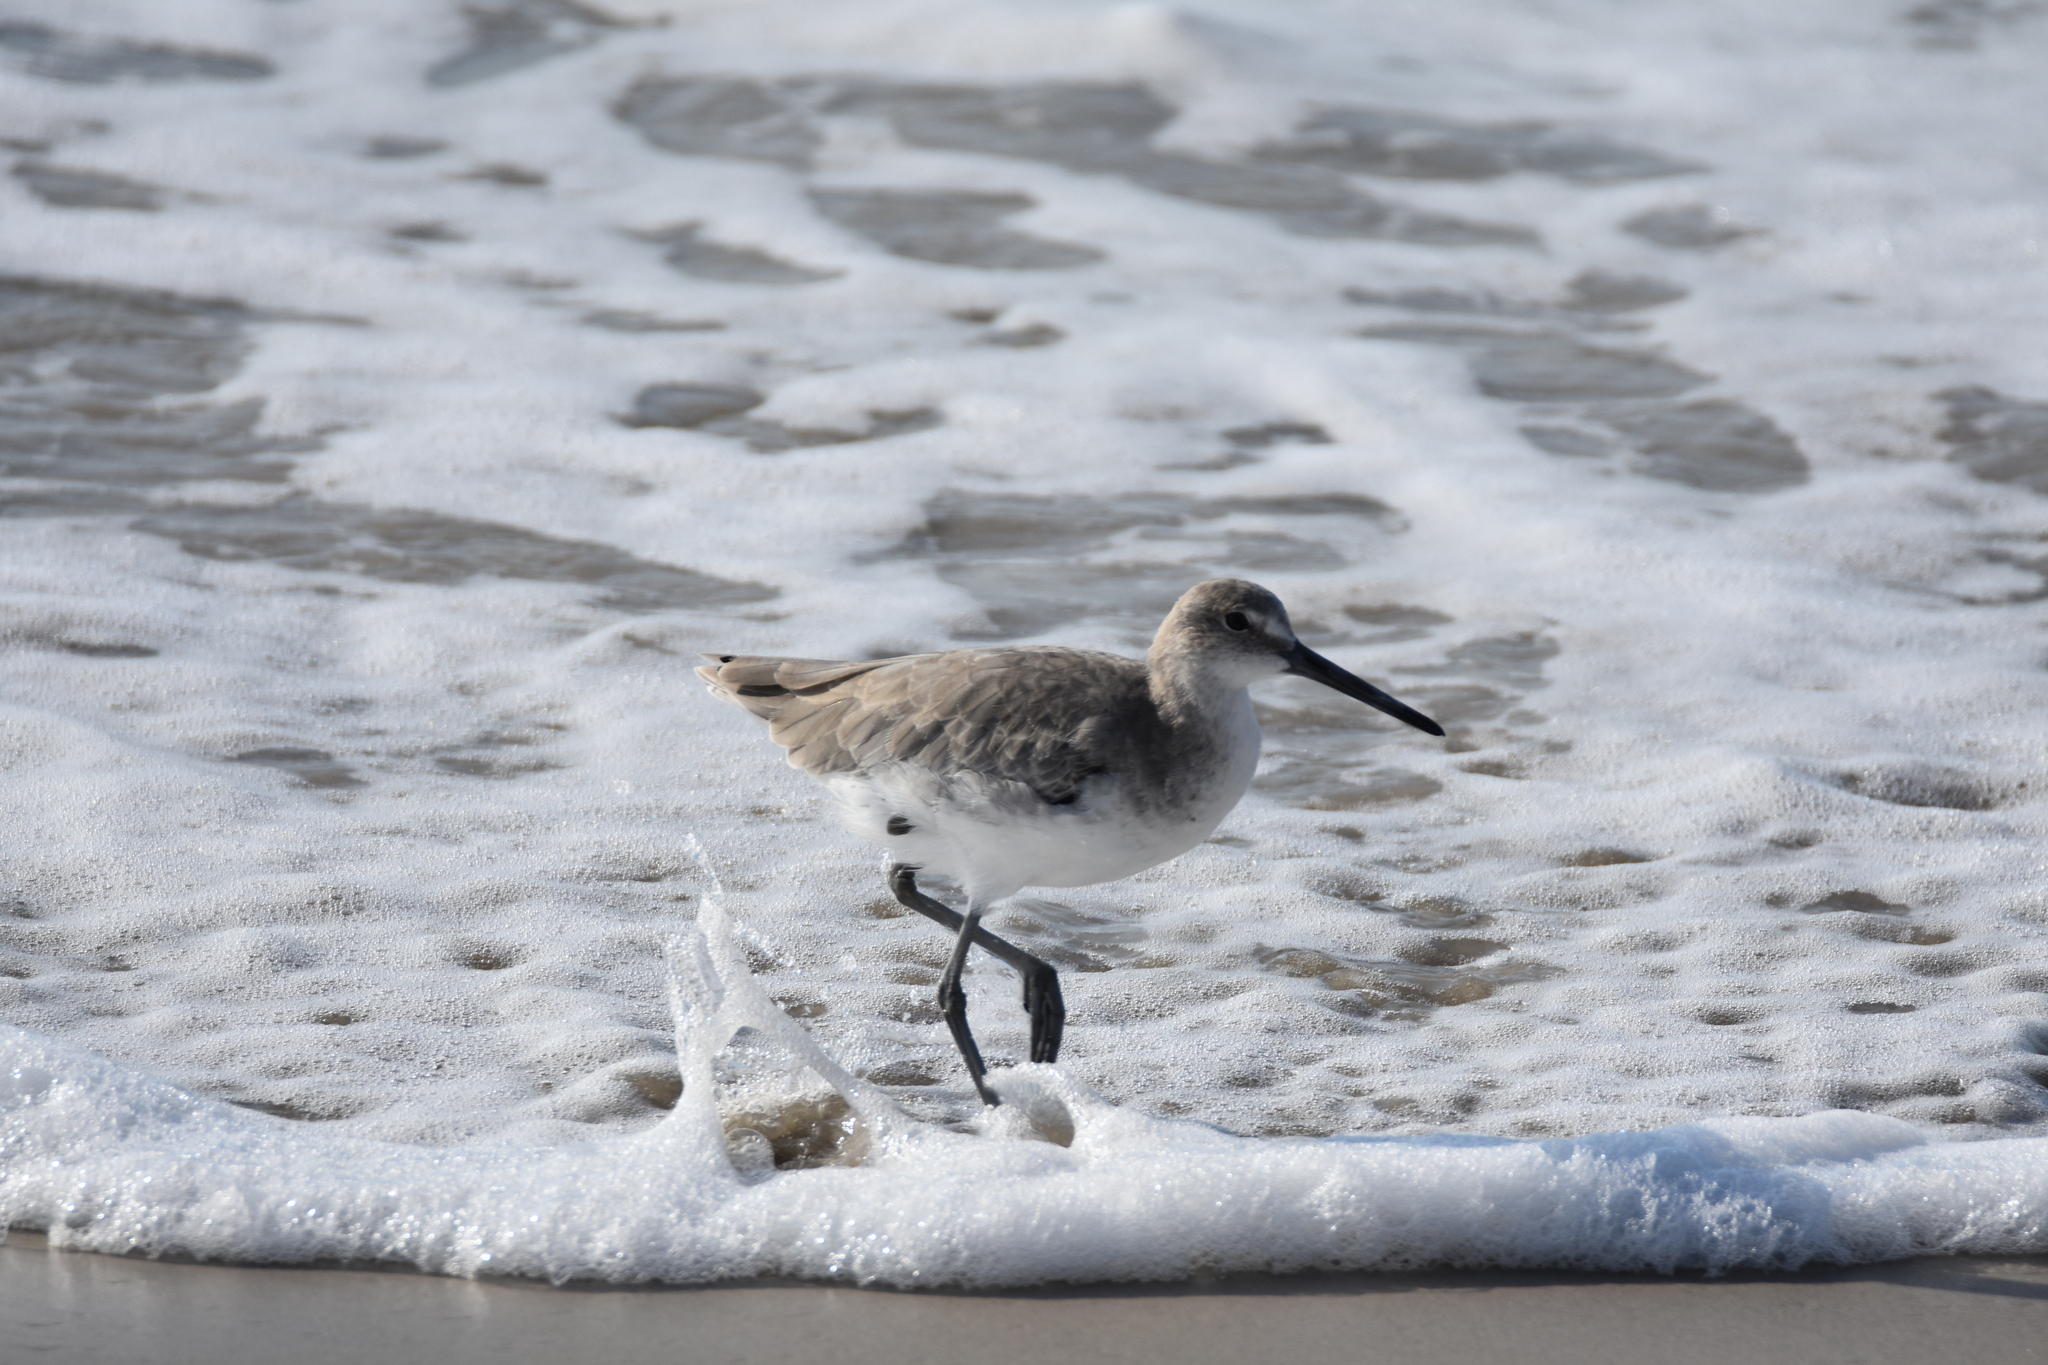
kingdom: Animalia
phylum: Chordata
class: Aves
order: Charadriiformes
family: Scolopacidae
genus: Tringa
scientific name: Tringa semipalmata
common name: Willet
